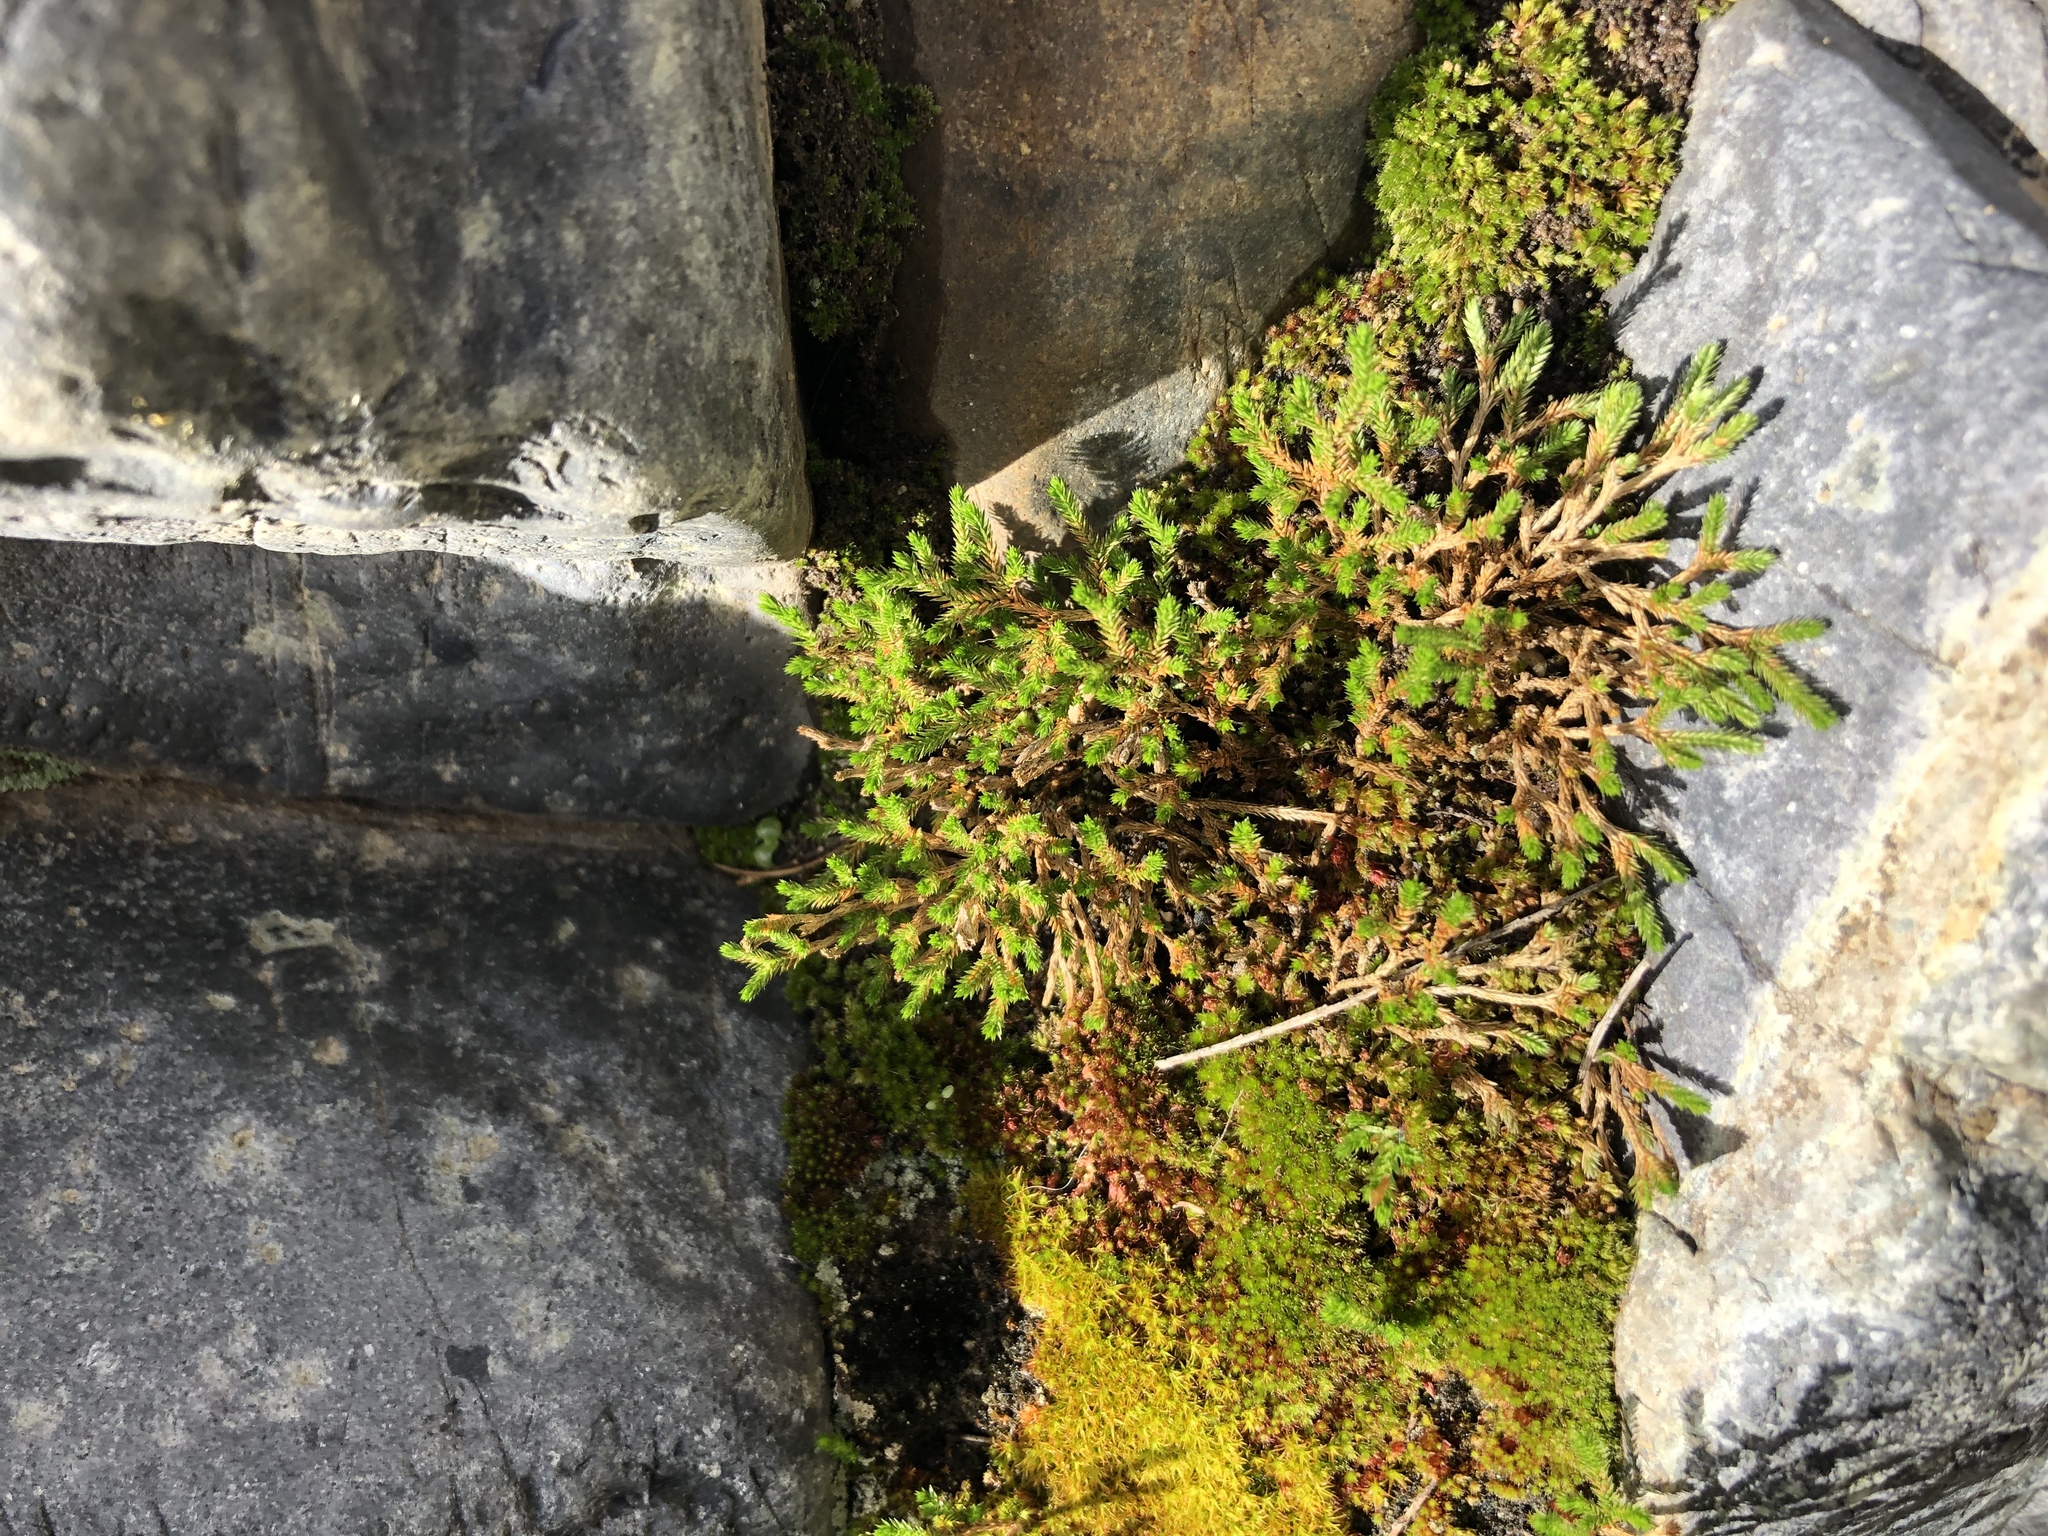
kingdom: Plantae
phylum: Tracheophyta
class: Lycopodiopsida
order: Selaginellales
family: Selaginellaceae
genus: Selaginella
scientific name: Selaginella bigelovii
